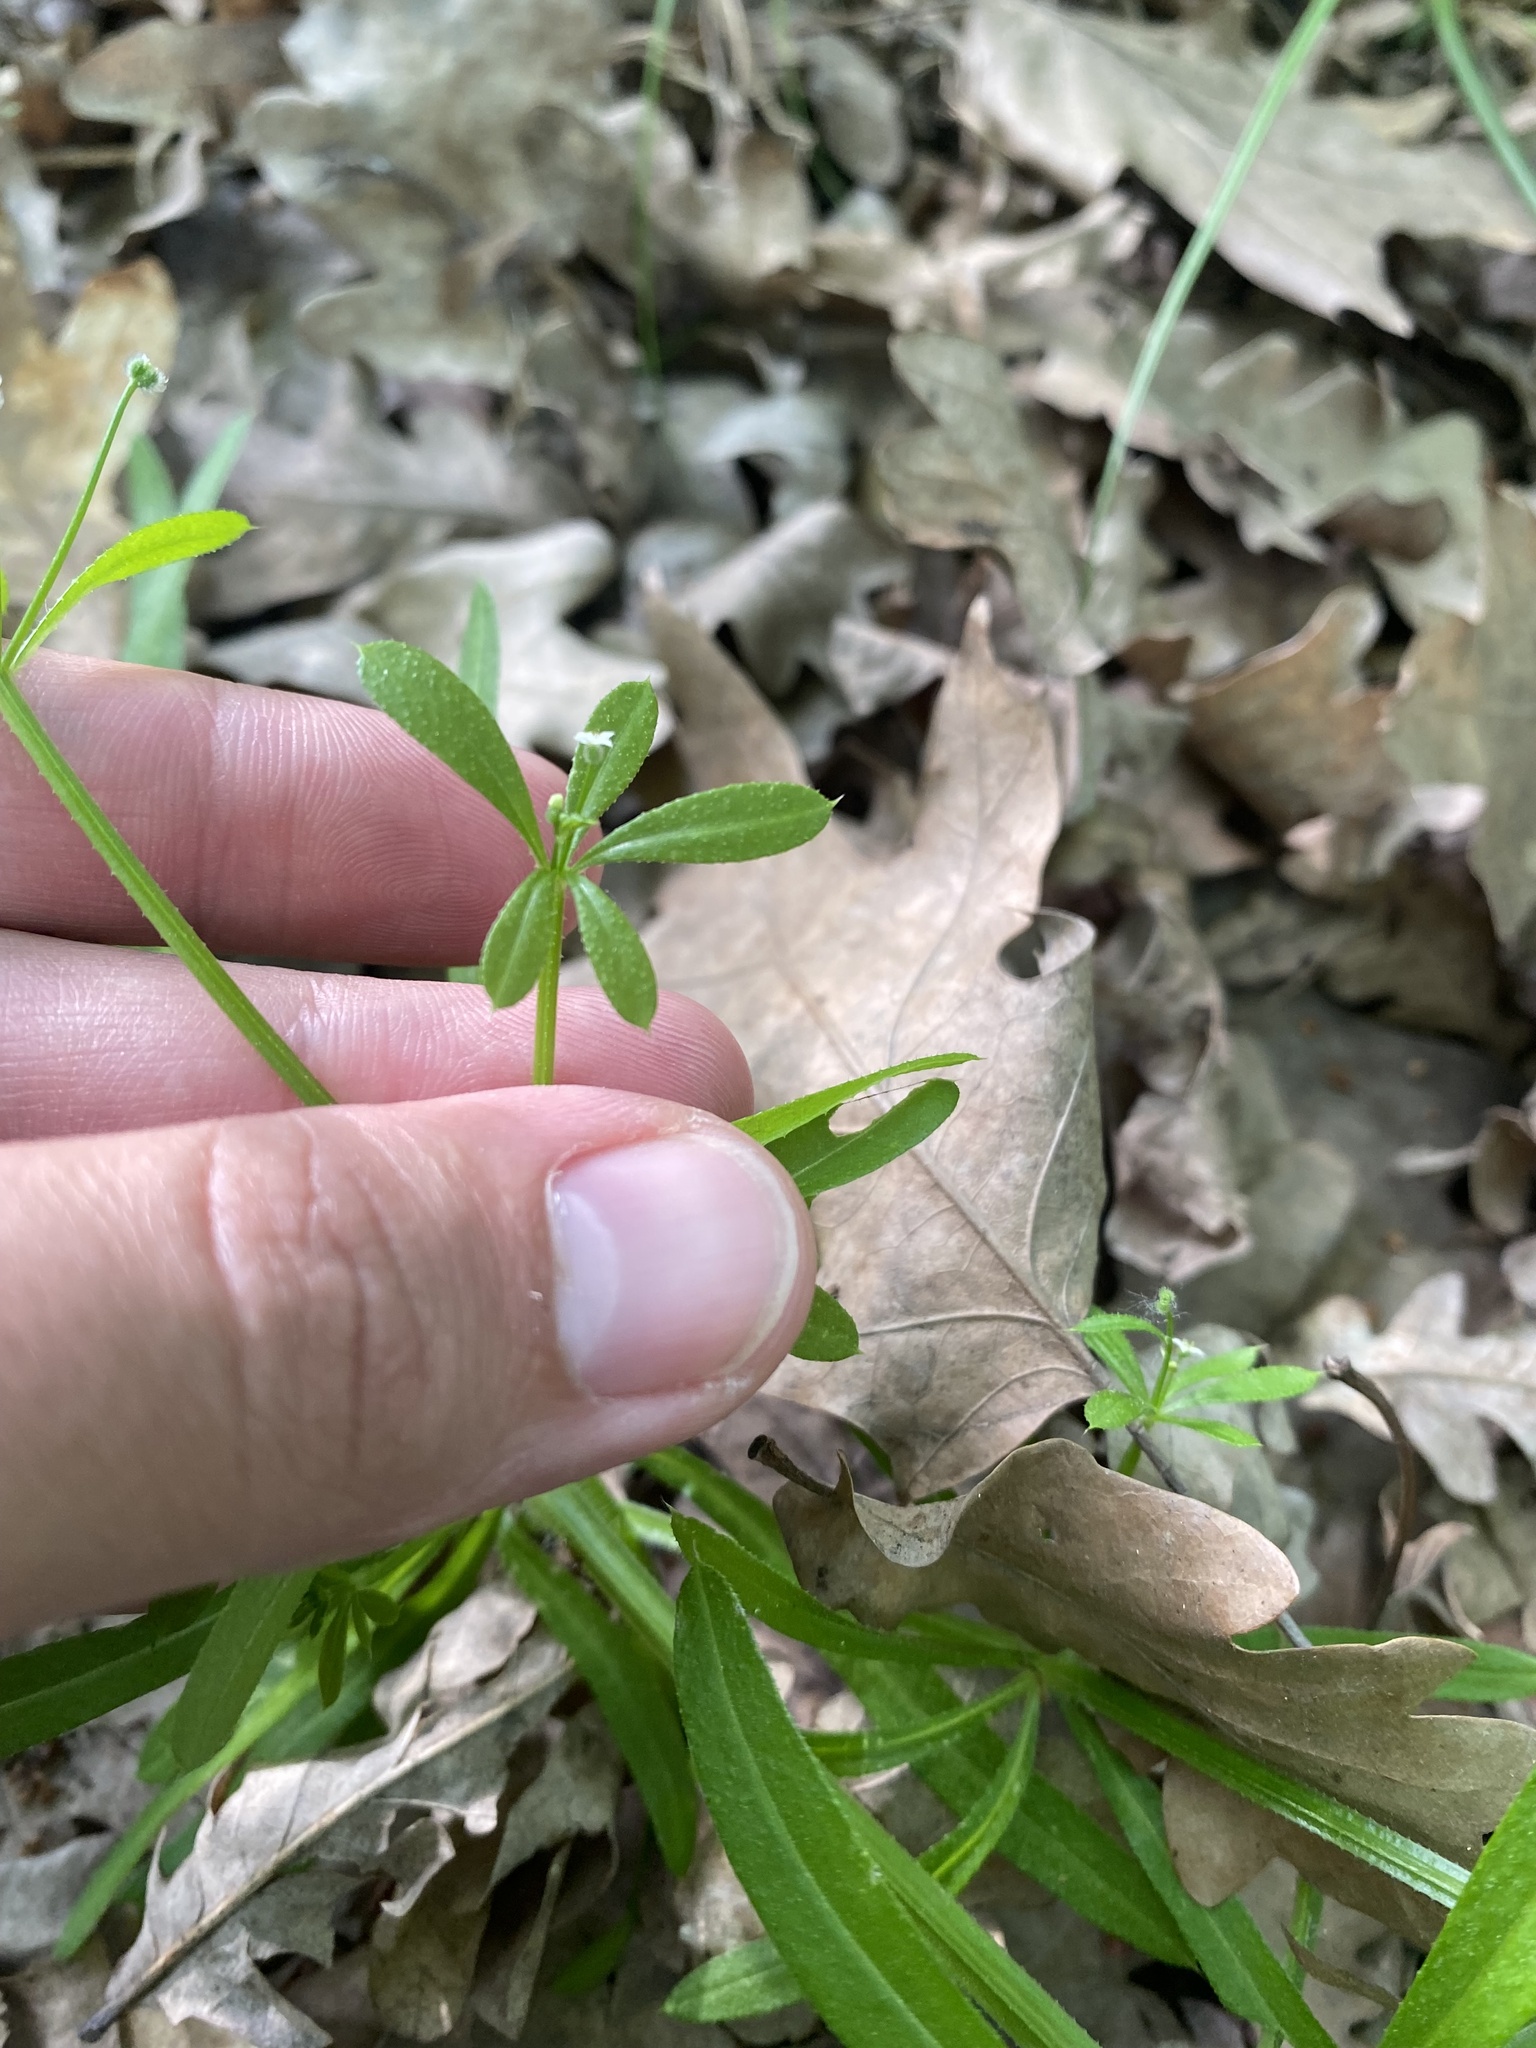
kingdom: Plantae
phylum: Tracheophyta
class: Magnoliopsida
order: Gentianales
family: Rubiaceae
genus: Galium
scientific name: Galium aparine
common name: Cleavers
